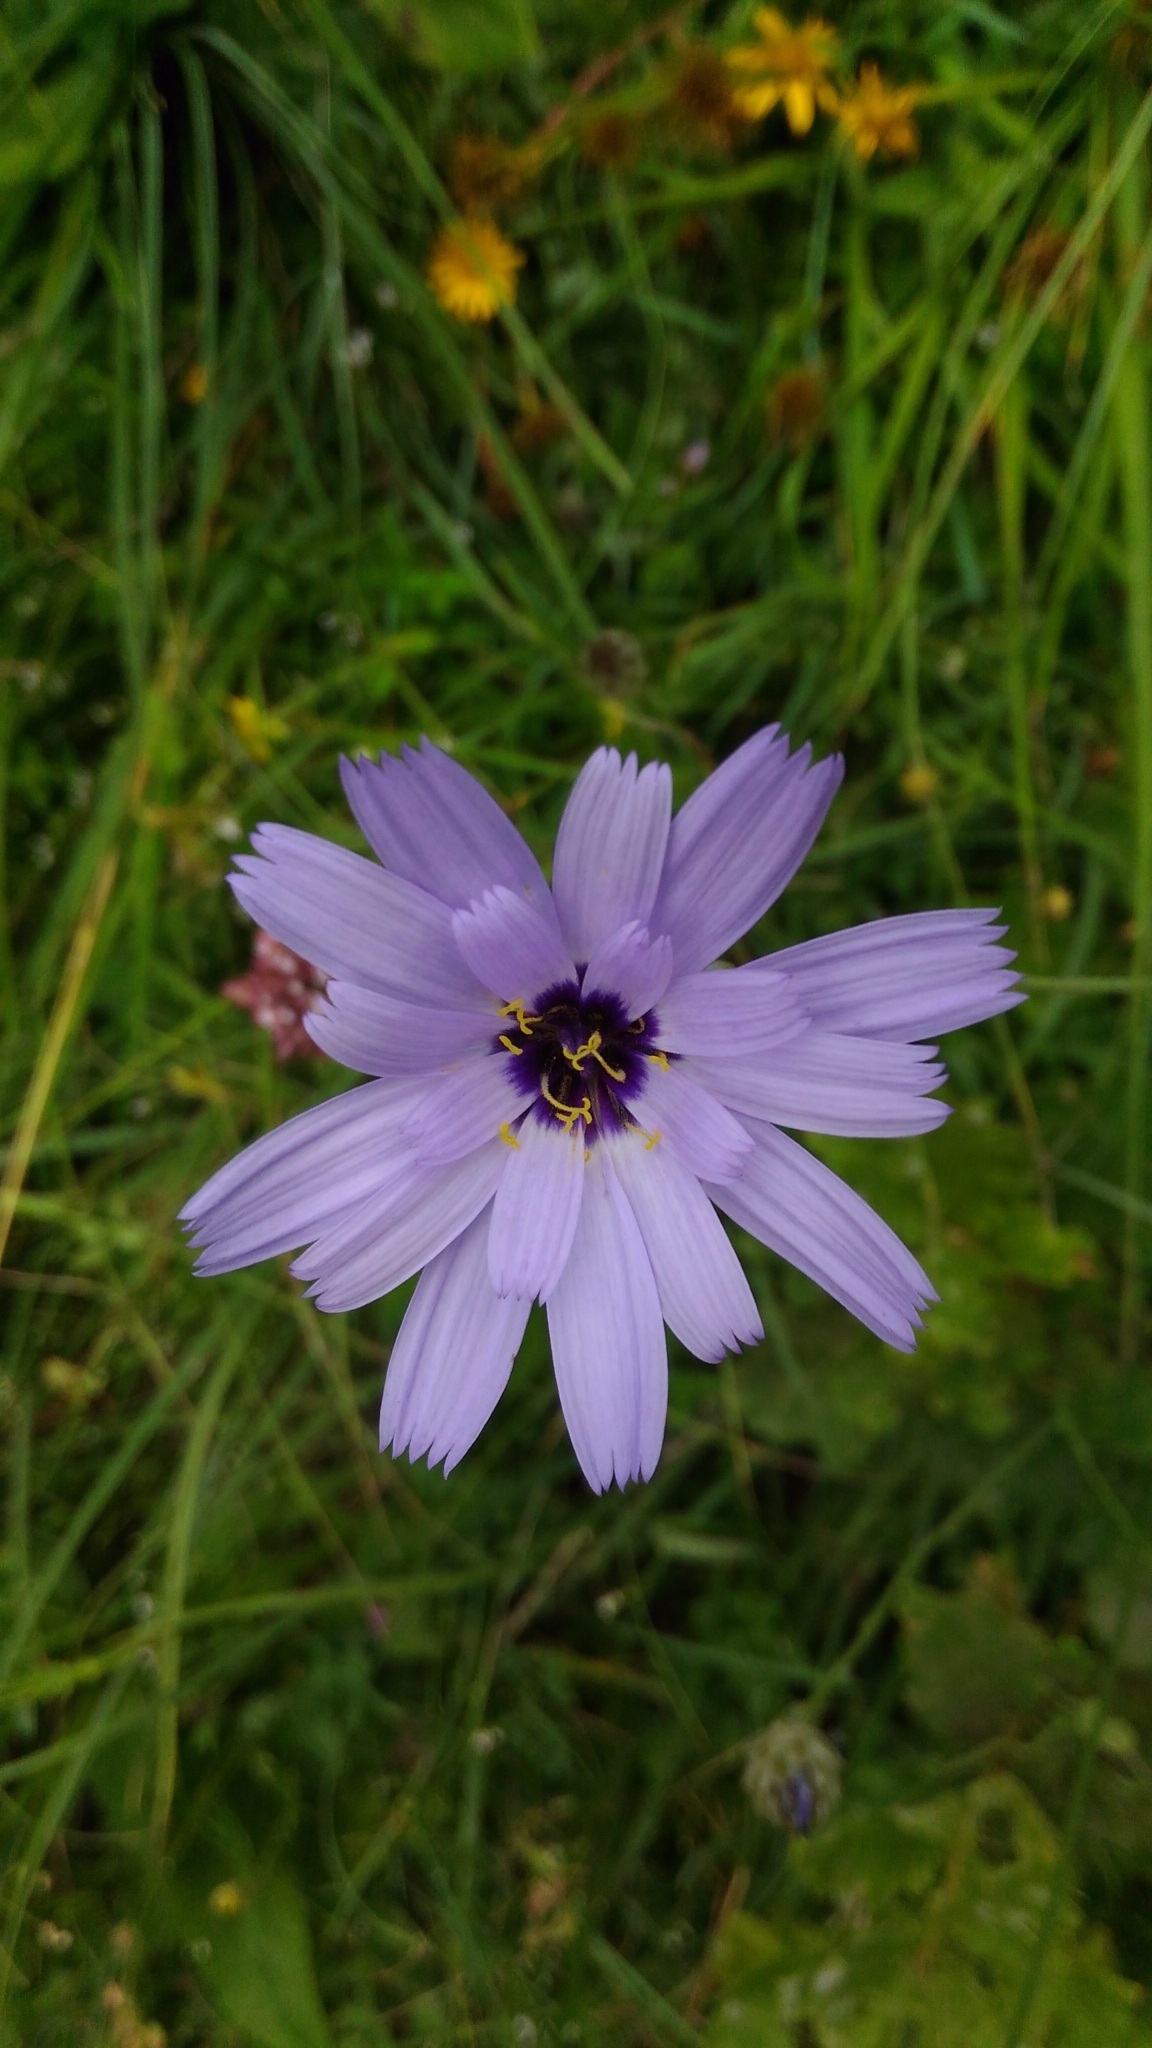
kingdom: Plantae
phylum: Tracheophyta
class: Magnoliopsida
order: Asterales
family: Asteraceae
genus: Catananche
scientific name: Catananche caerulea
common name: Blue cupidone
